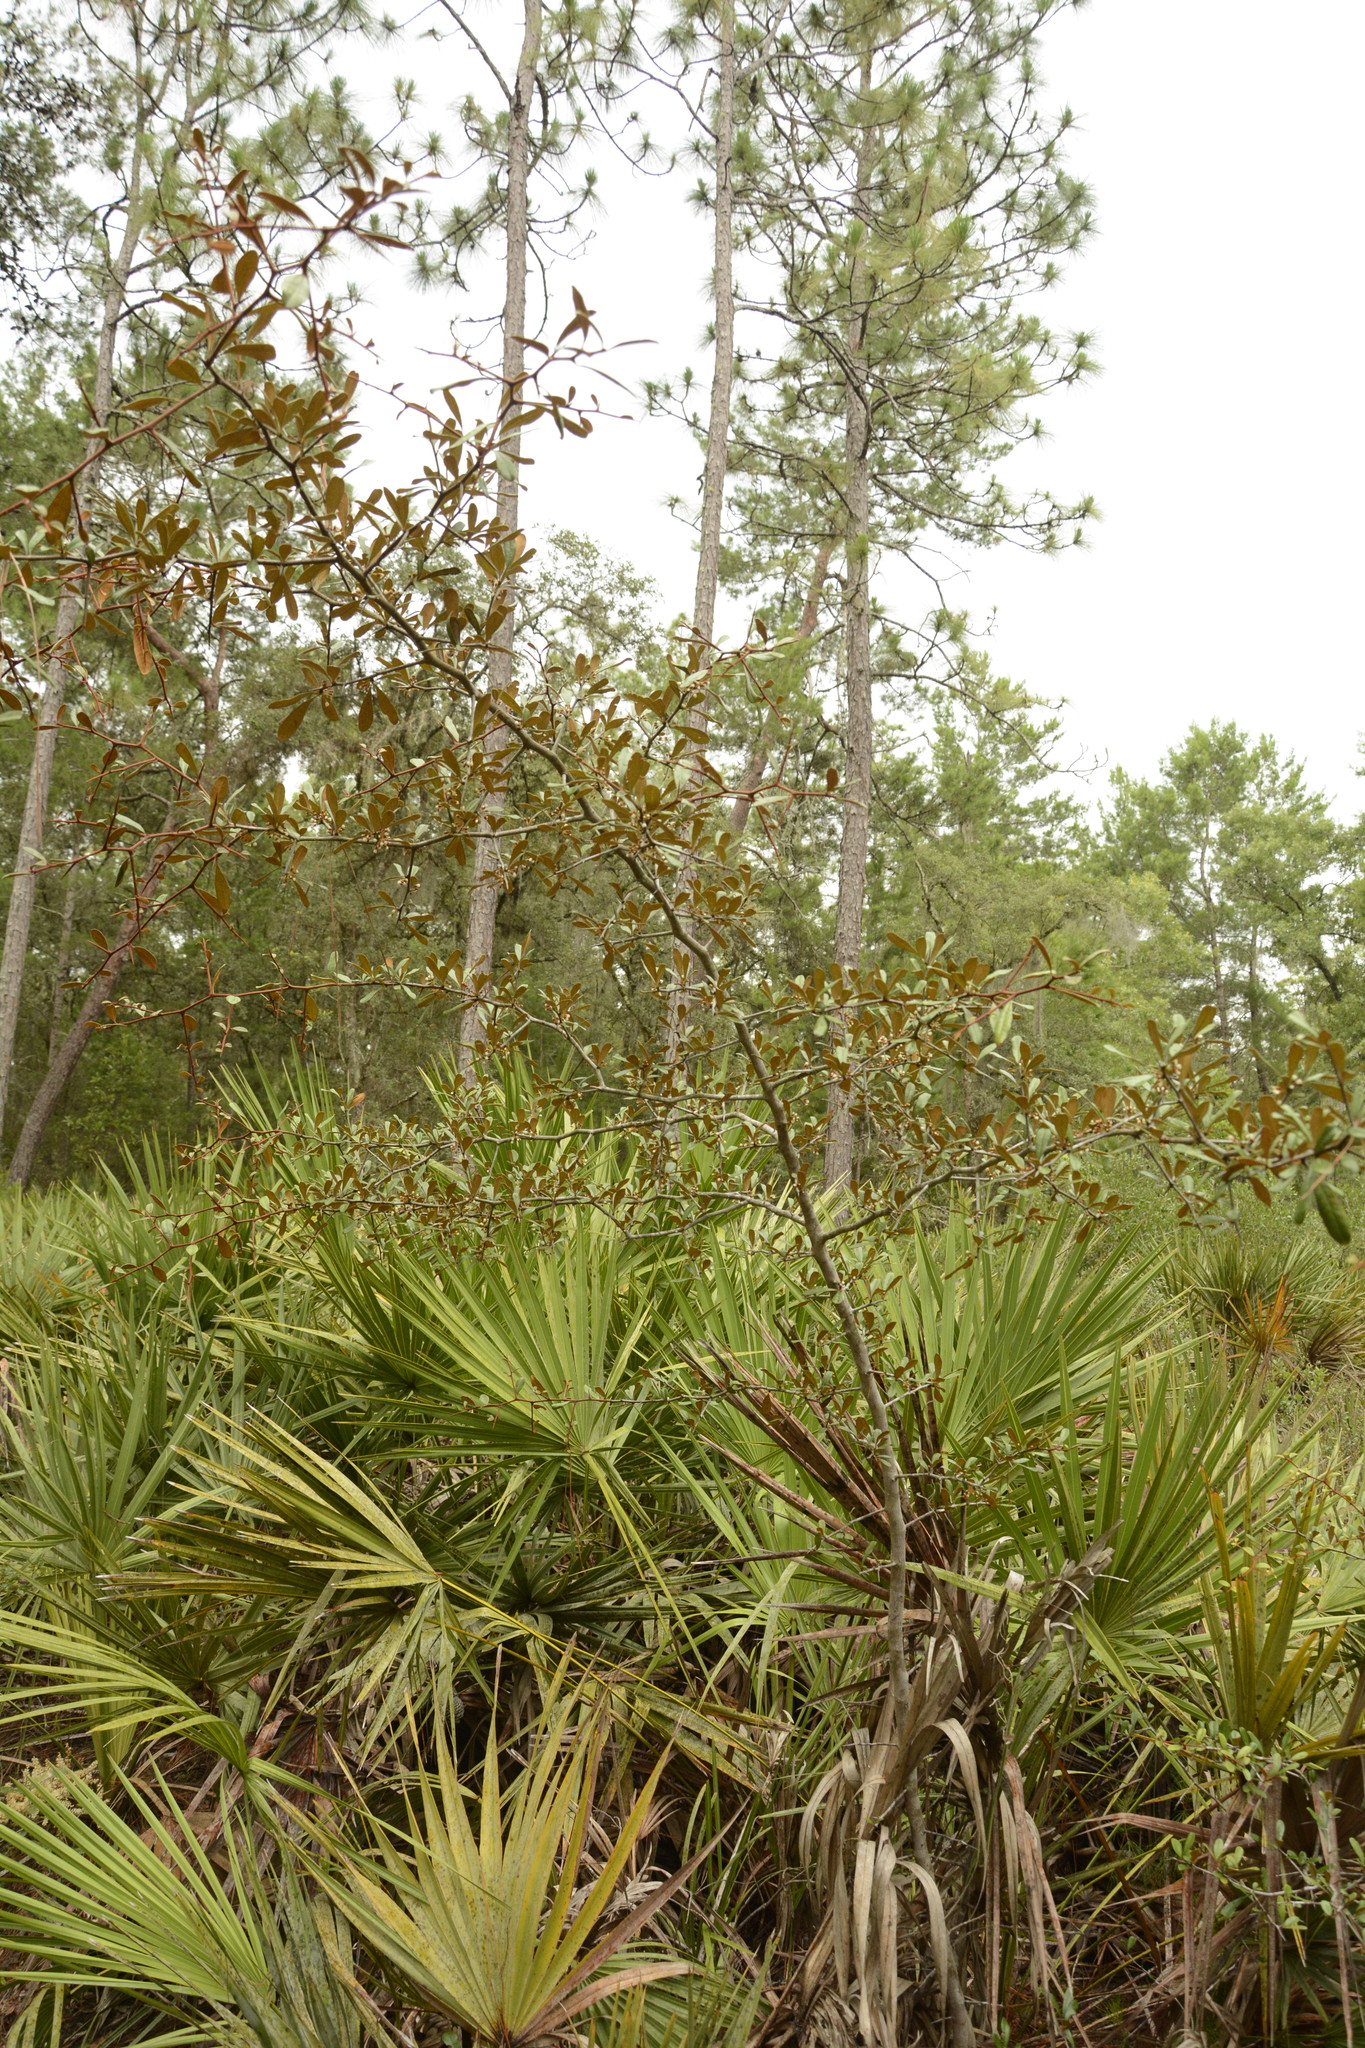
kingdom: Plantae
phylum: Tracheophyta
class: Magnoliopsida
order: Ericales
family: Sapotaceae
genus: Sideroxylon
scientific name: Sideroxylon tenax
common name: Tough-buckthorn
